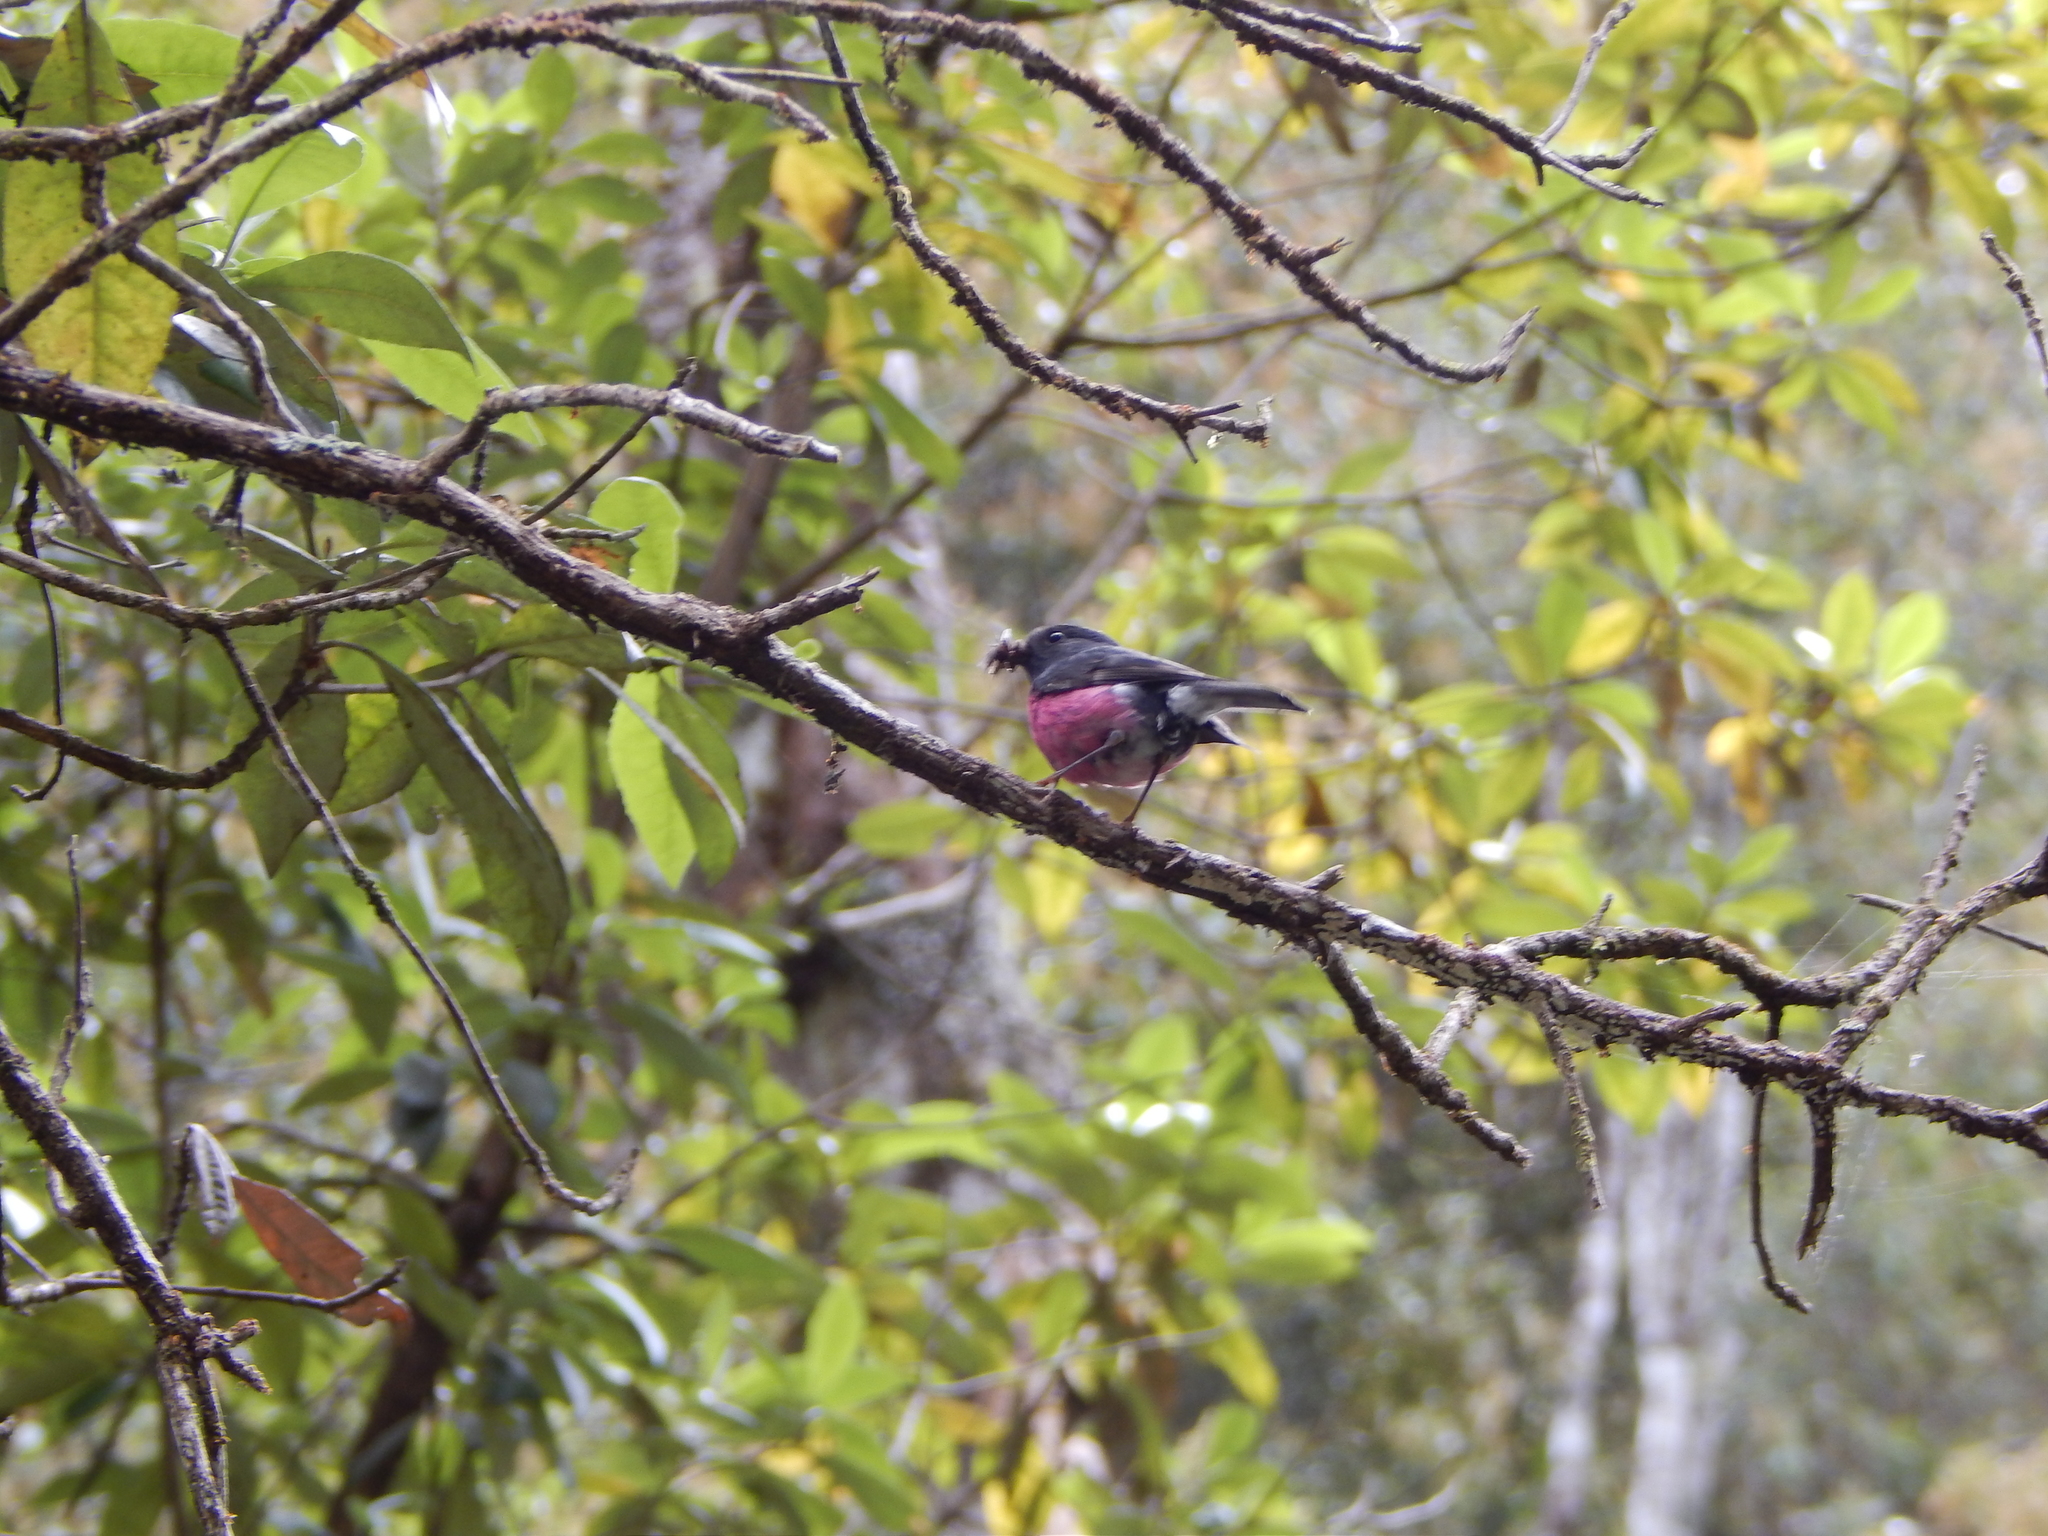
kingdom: Animalia
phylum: Chordata
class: Aves
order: Passeriformes
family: Petroicidae
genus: Petroica
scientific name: Petroica rodinogaster
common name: Pink robin
